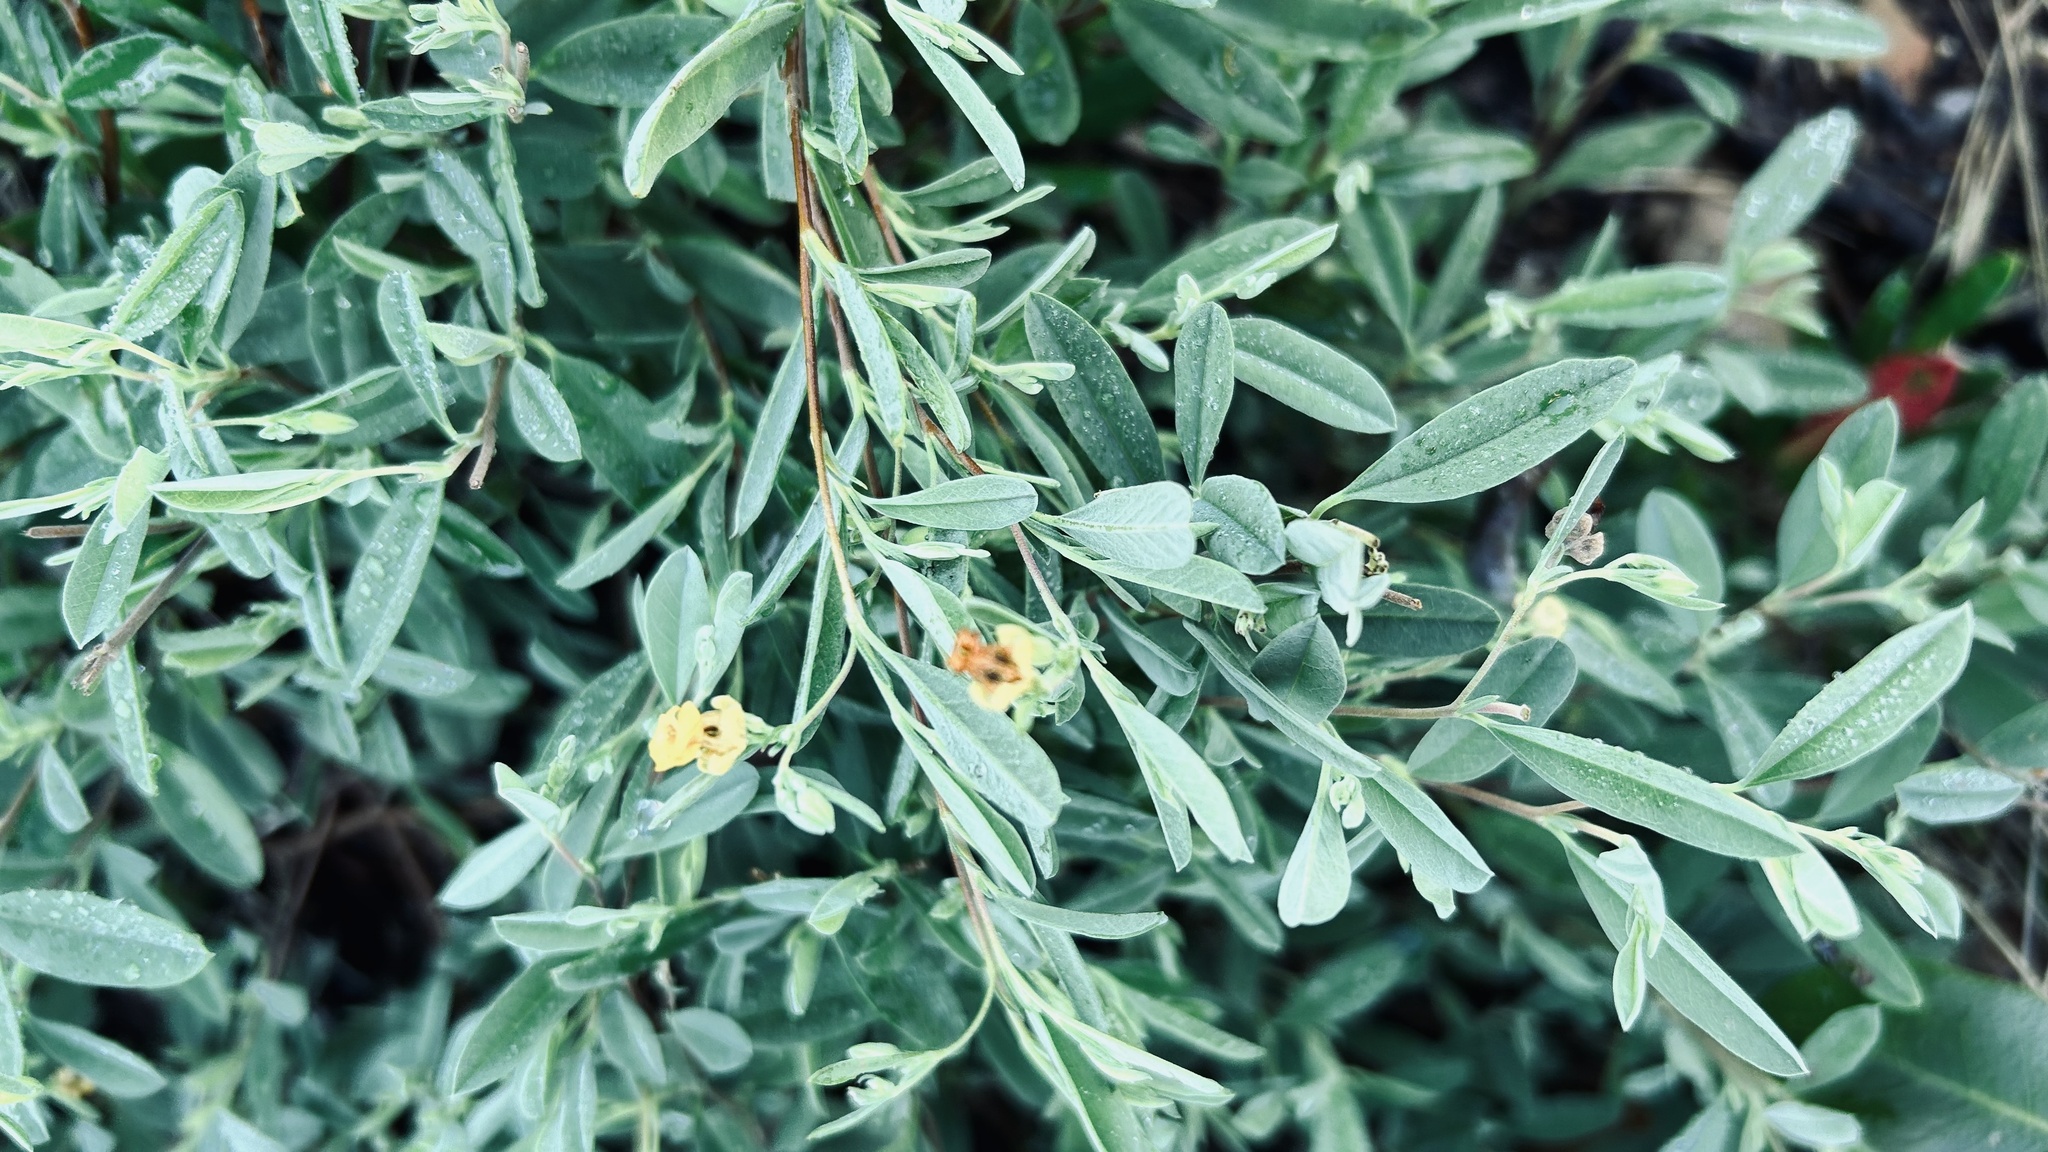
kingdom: Plantae
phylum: Tracheophyta
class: Magnoliopsida
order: Malvales
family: Malvaceae
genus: Hermannia
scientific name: Hermannia lavandulifolia
